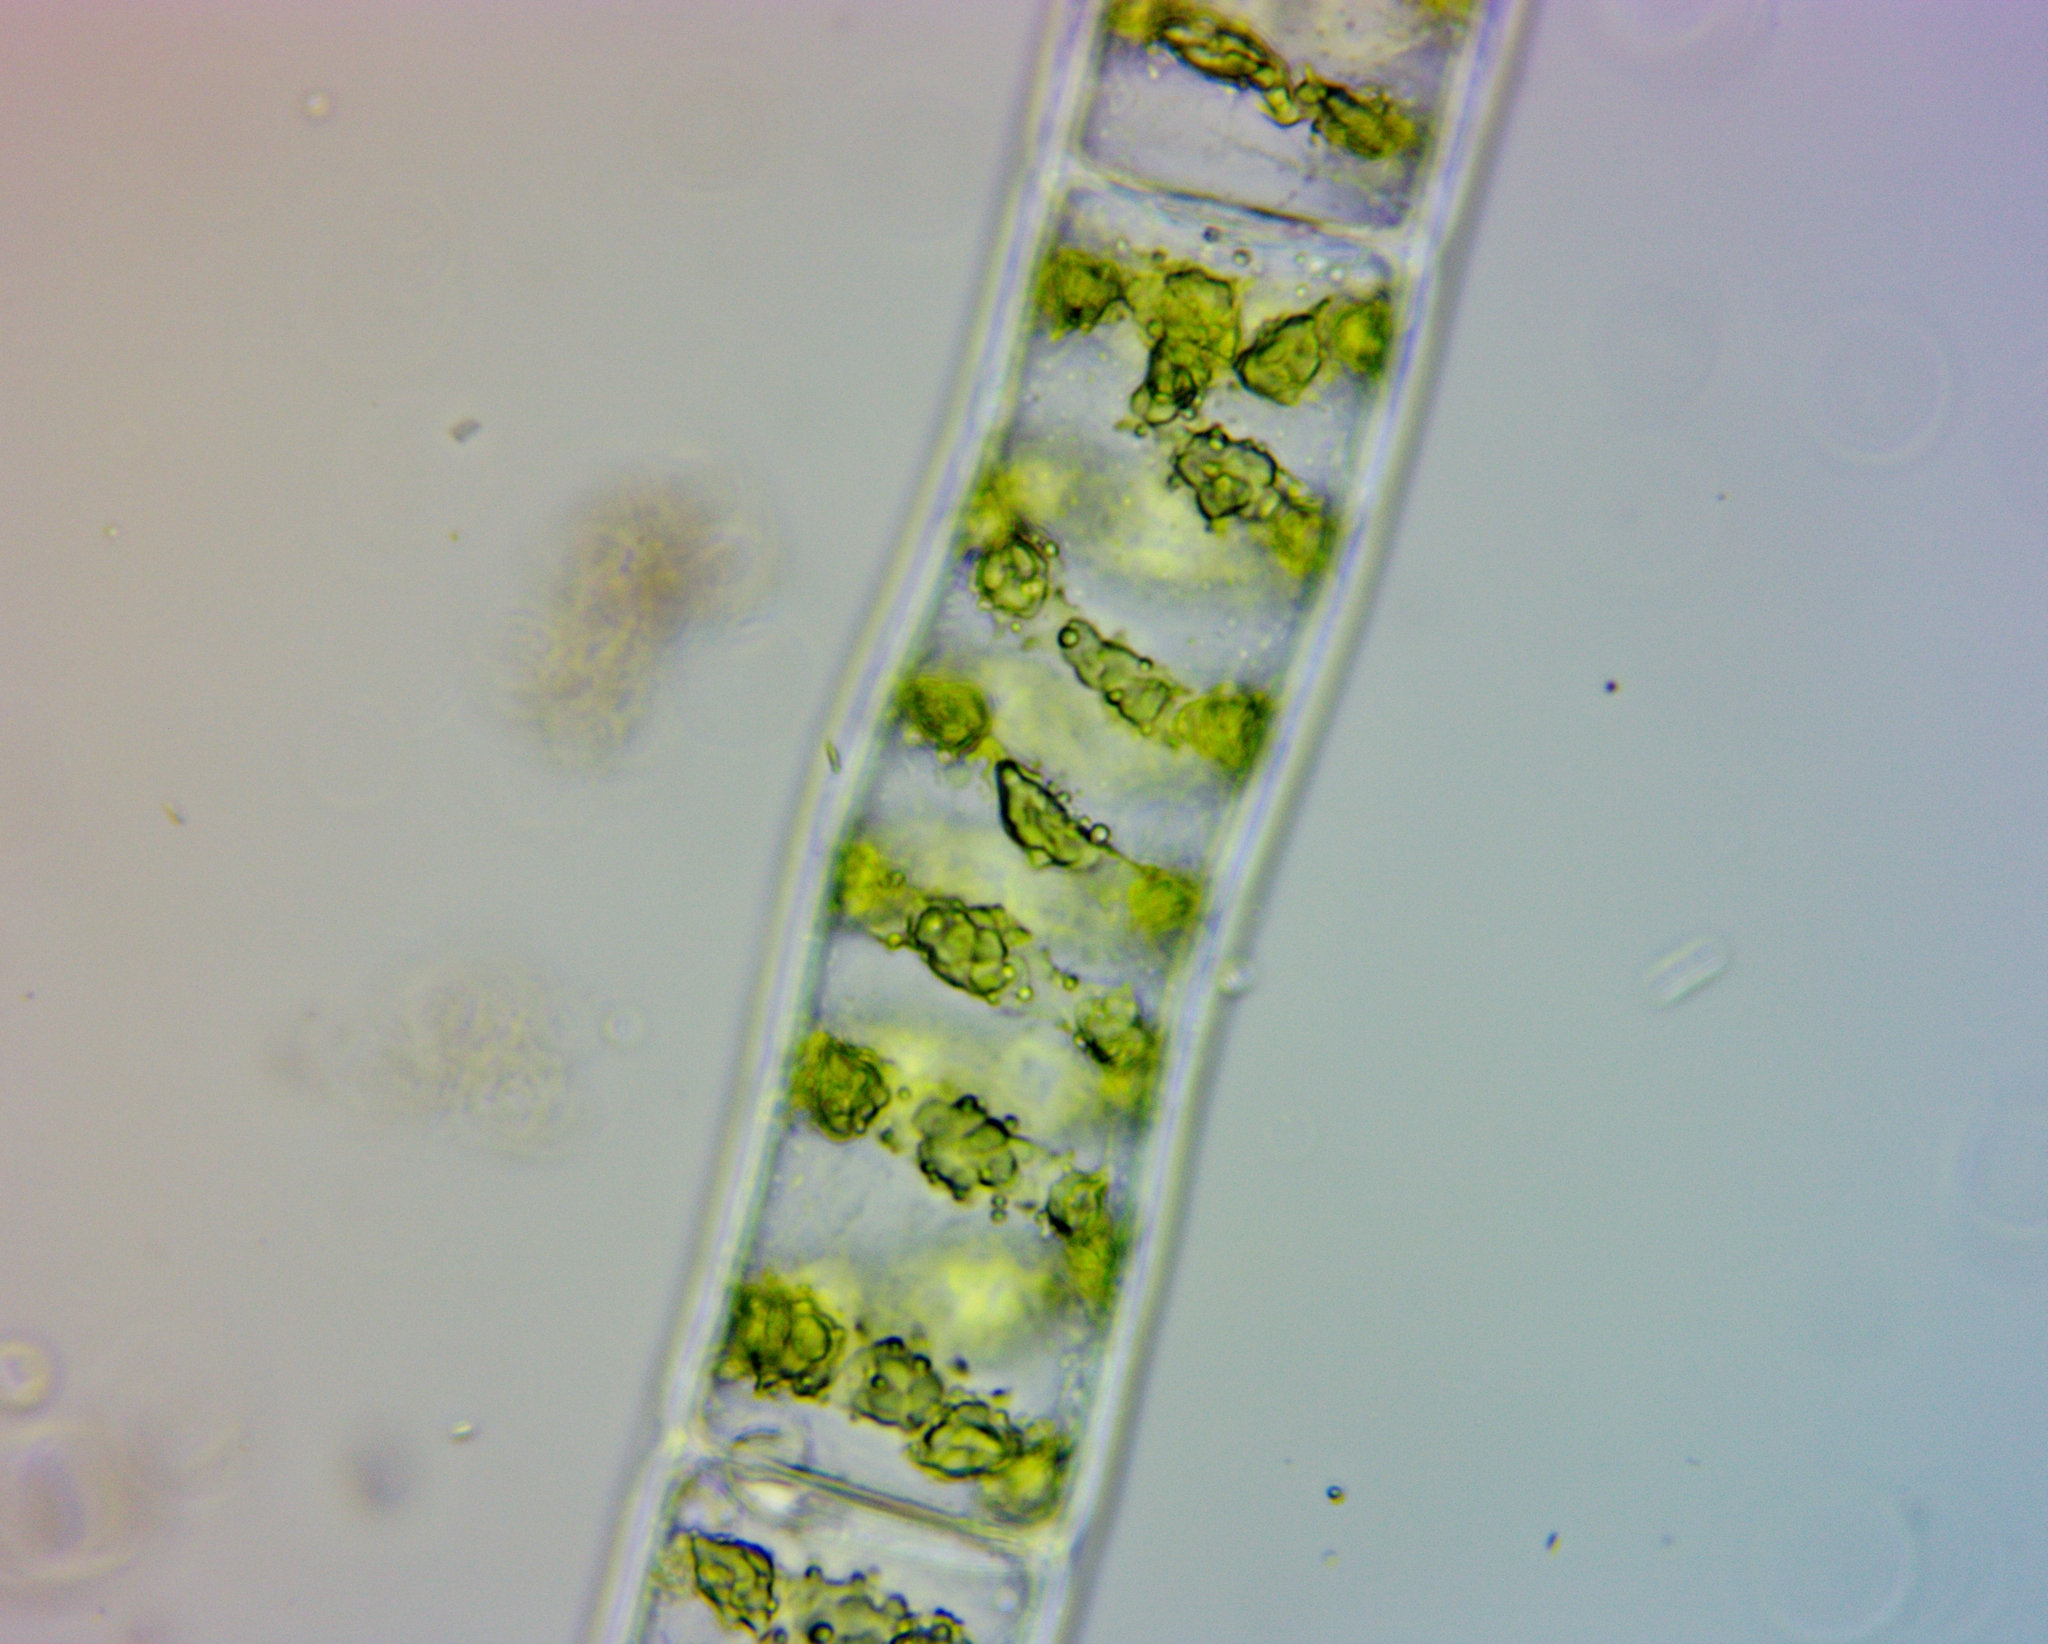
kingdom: Plantae
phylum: Charophyta
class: Zygnematophyceae
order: Zygnematales
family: Zygnemataceae
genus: Spirogyra
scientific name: Spirogyra
